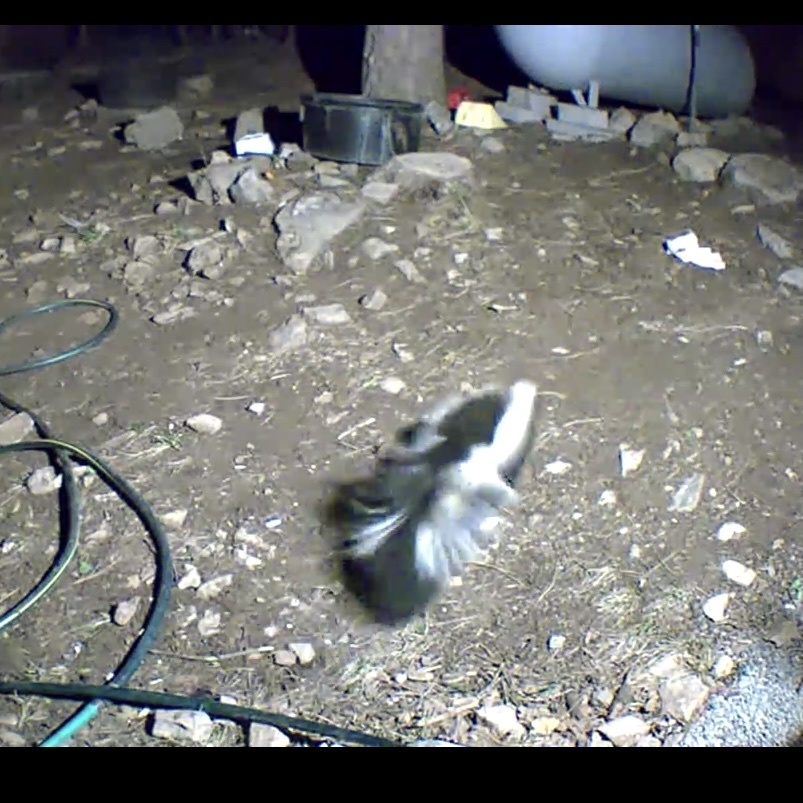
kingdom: Animalia
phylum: Chordata
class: Mammalia
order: Carnivora
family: Mephitidae
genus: Mephitis
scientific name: Mephitis mephitis
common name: Striped skunk
